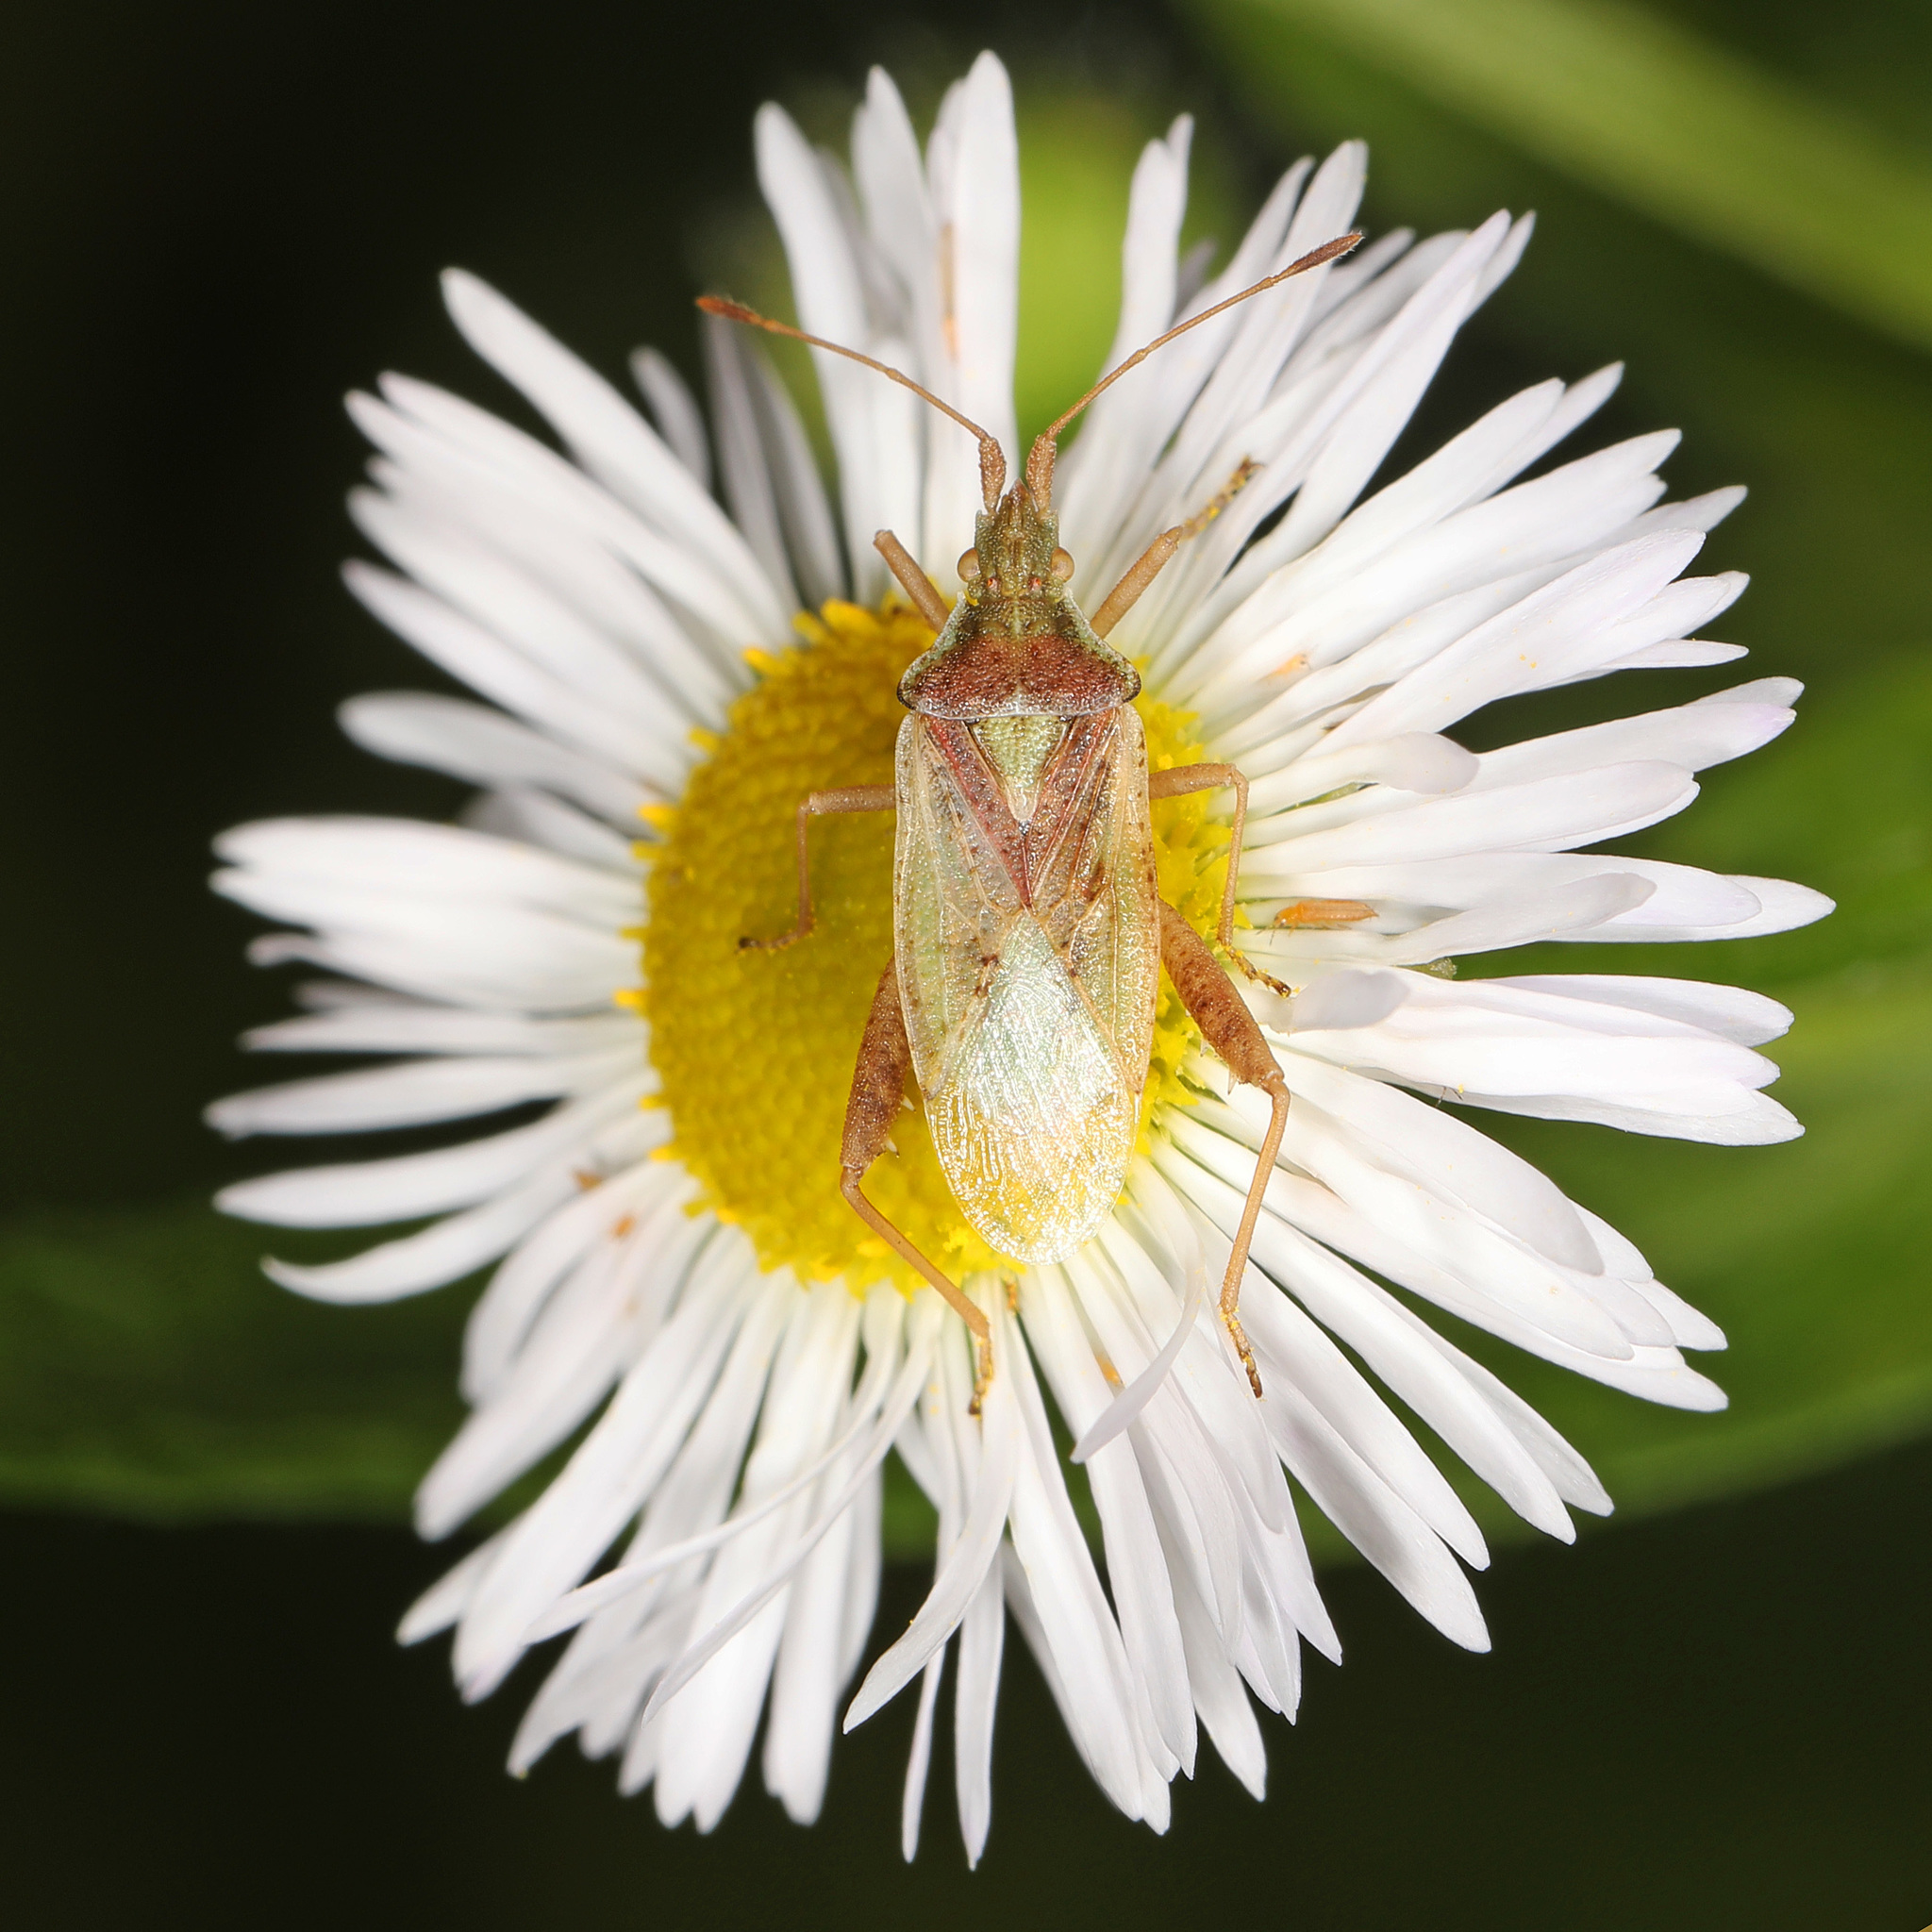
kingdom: Animalia
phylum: Arthropoda
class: Insecta
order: Hemiptera
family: Rhopalidae
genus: Harmostes
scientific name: Harmostes reflexulus
